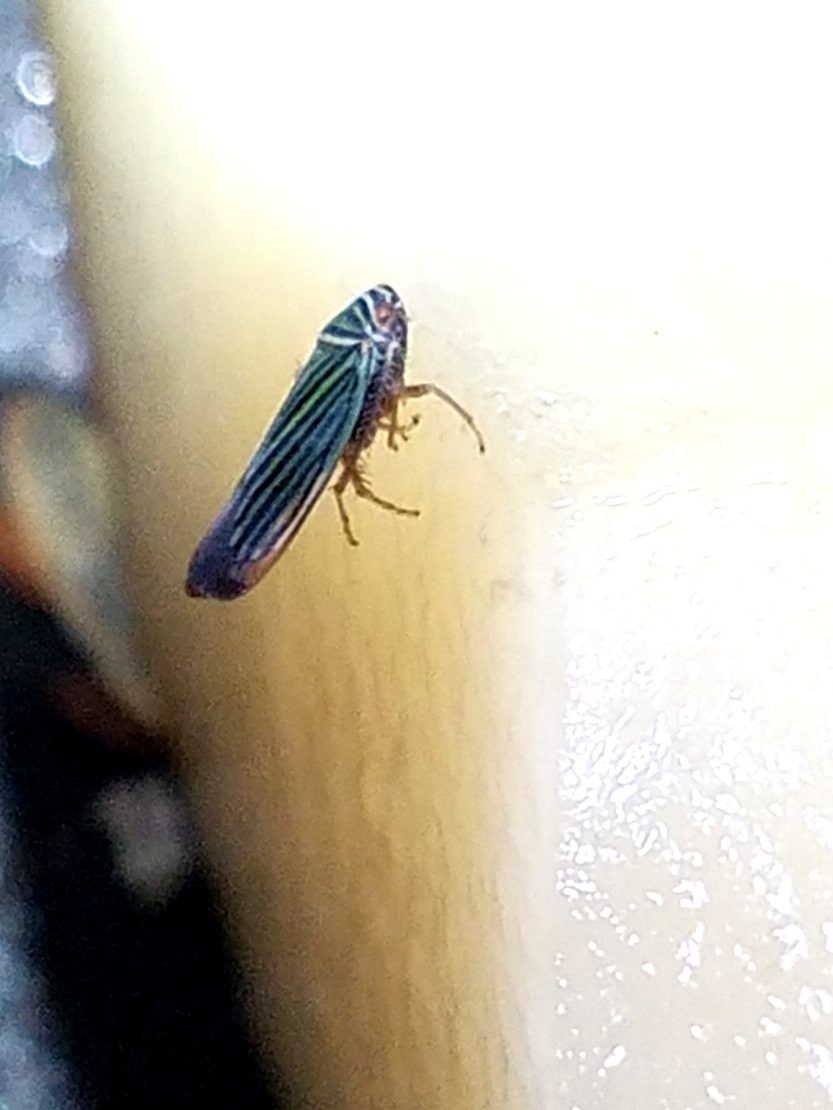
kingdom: Animalia
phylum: Arthropoda
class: Insecta
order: Hemiptera
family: Cicadellidae
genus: Tylozygus
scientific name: Tylozygus bifidus
